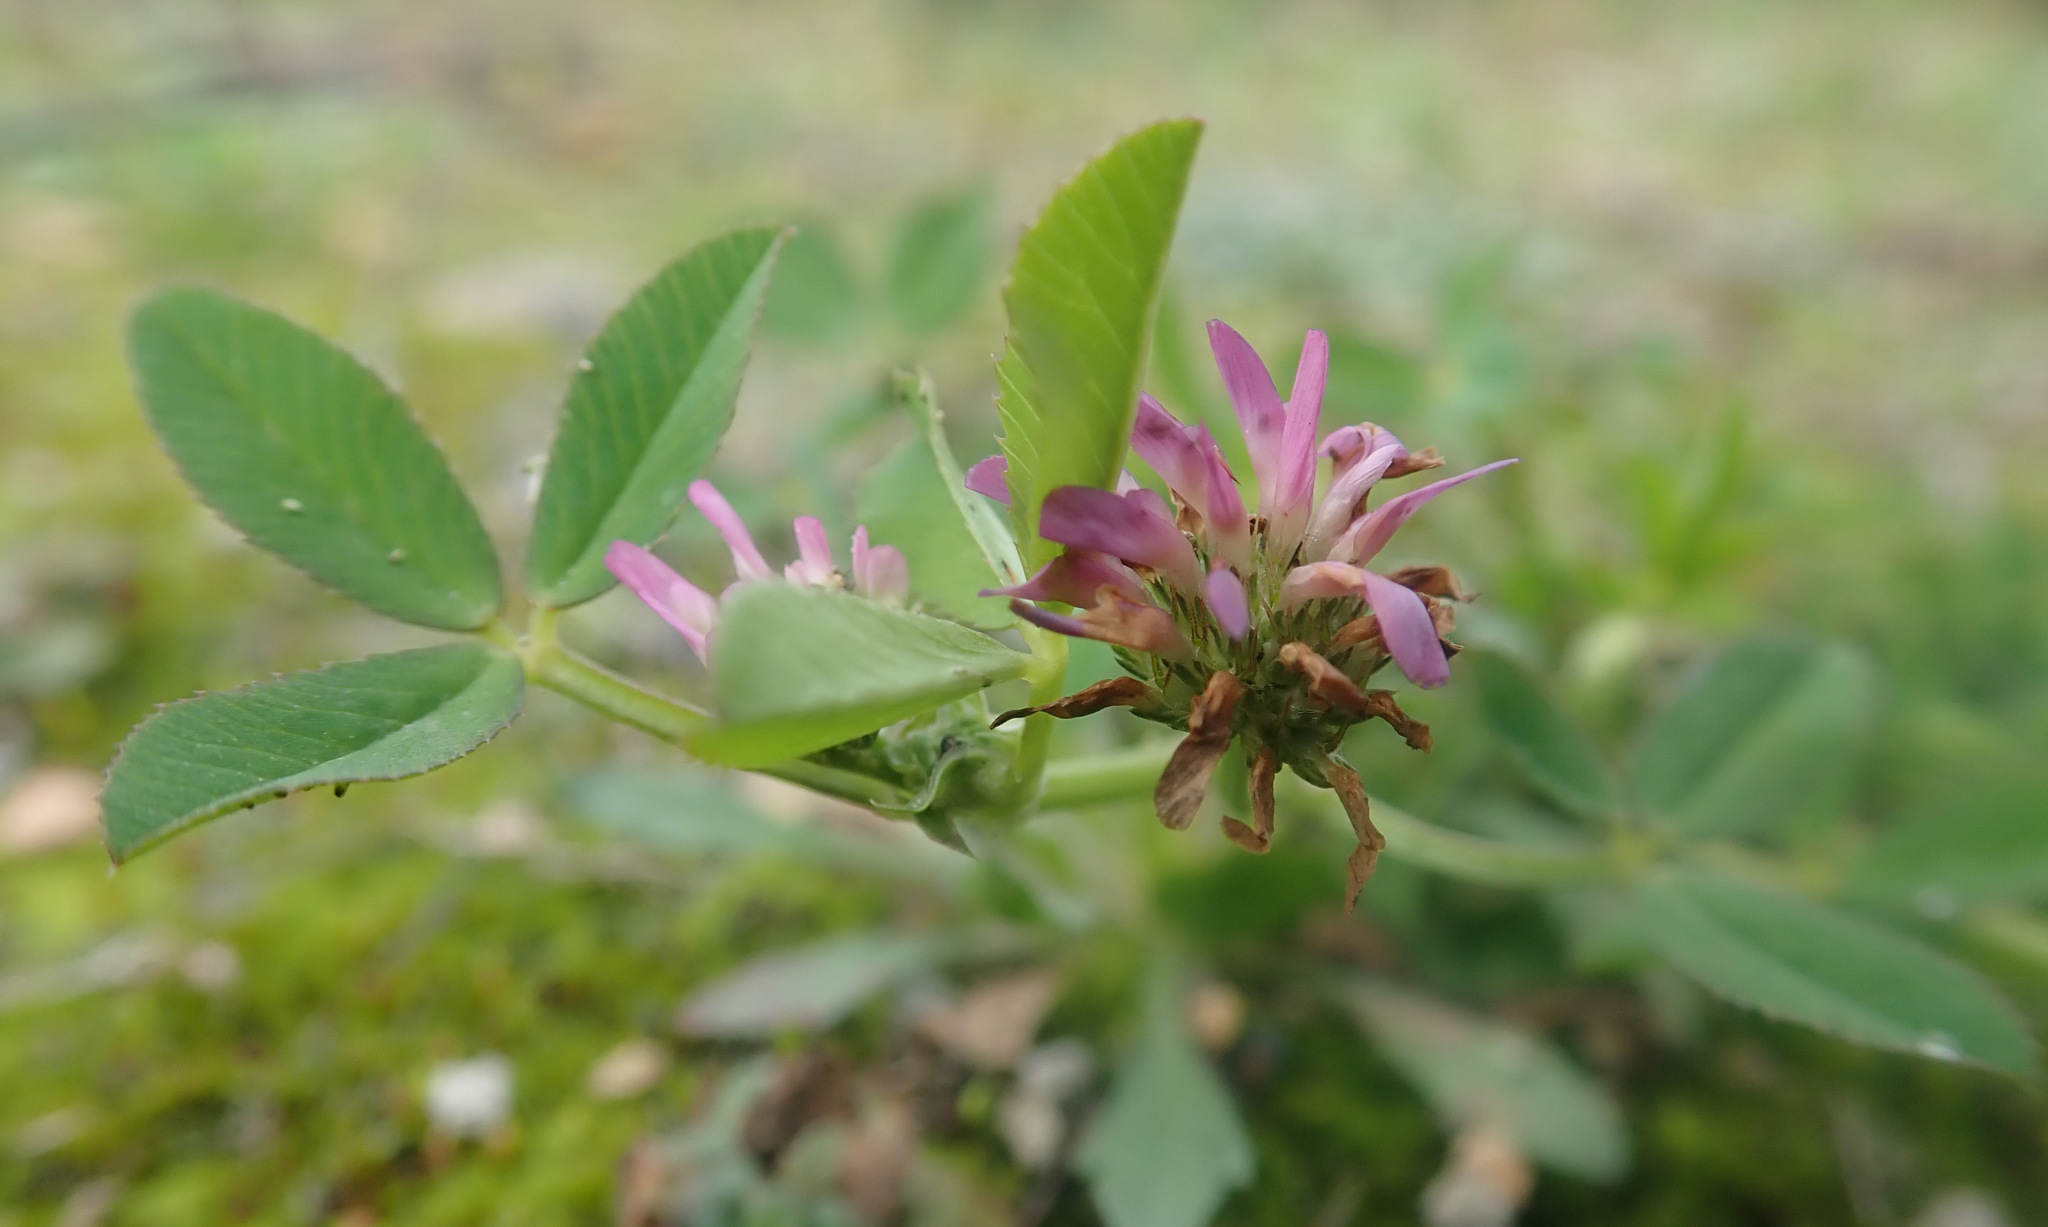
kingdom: Plantae
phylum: Tracheophyta
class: Magnoliopsida
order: Fabales
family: Fabaceae
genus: Trifolium
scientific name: Trifolium resupinatum
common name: Reversed clover
